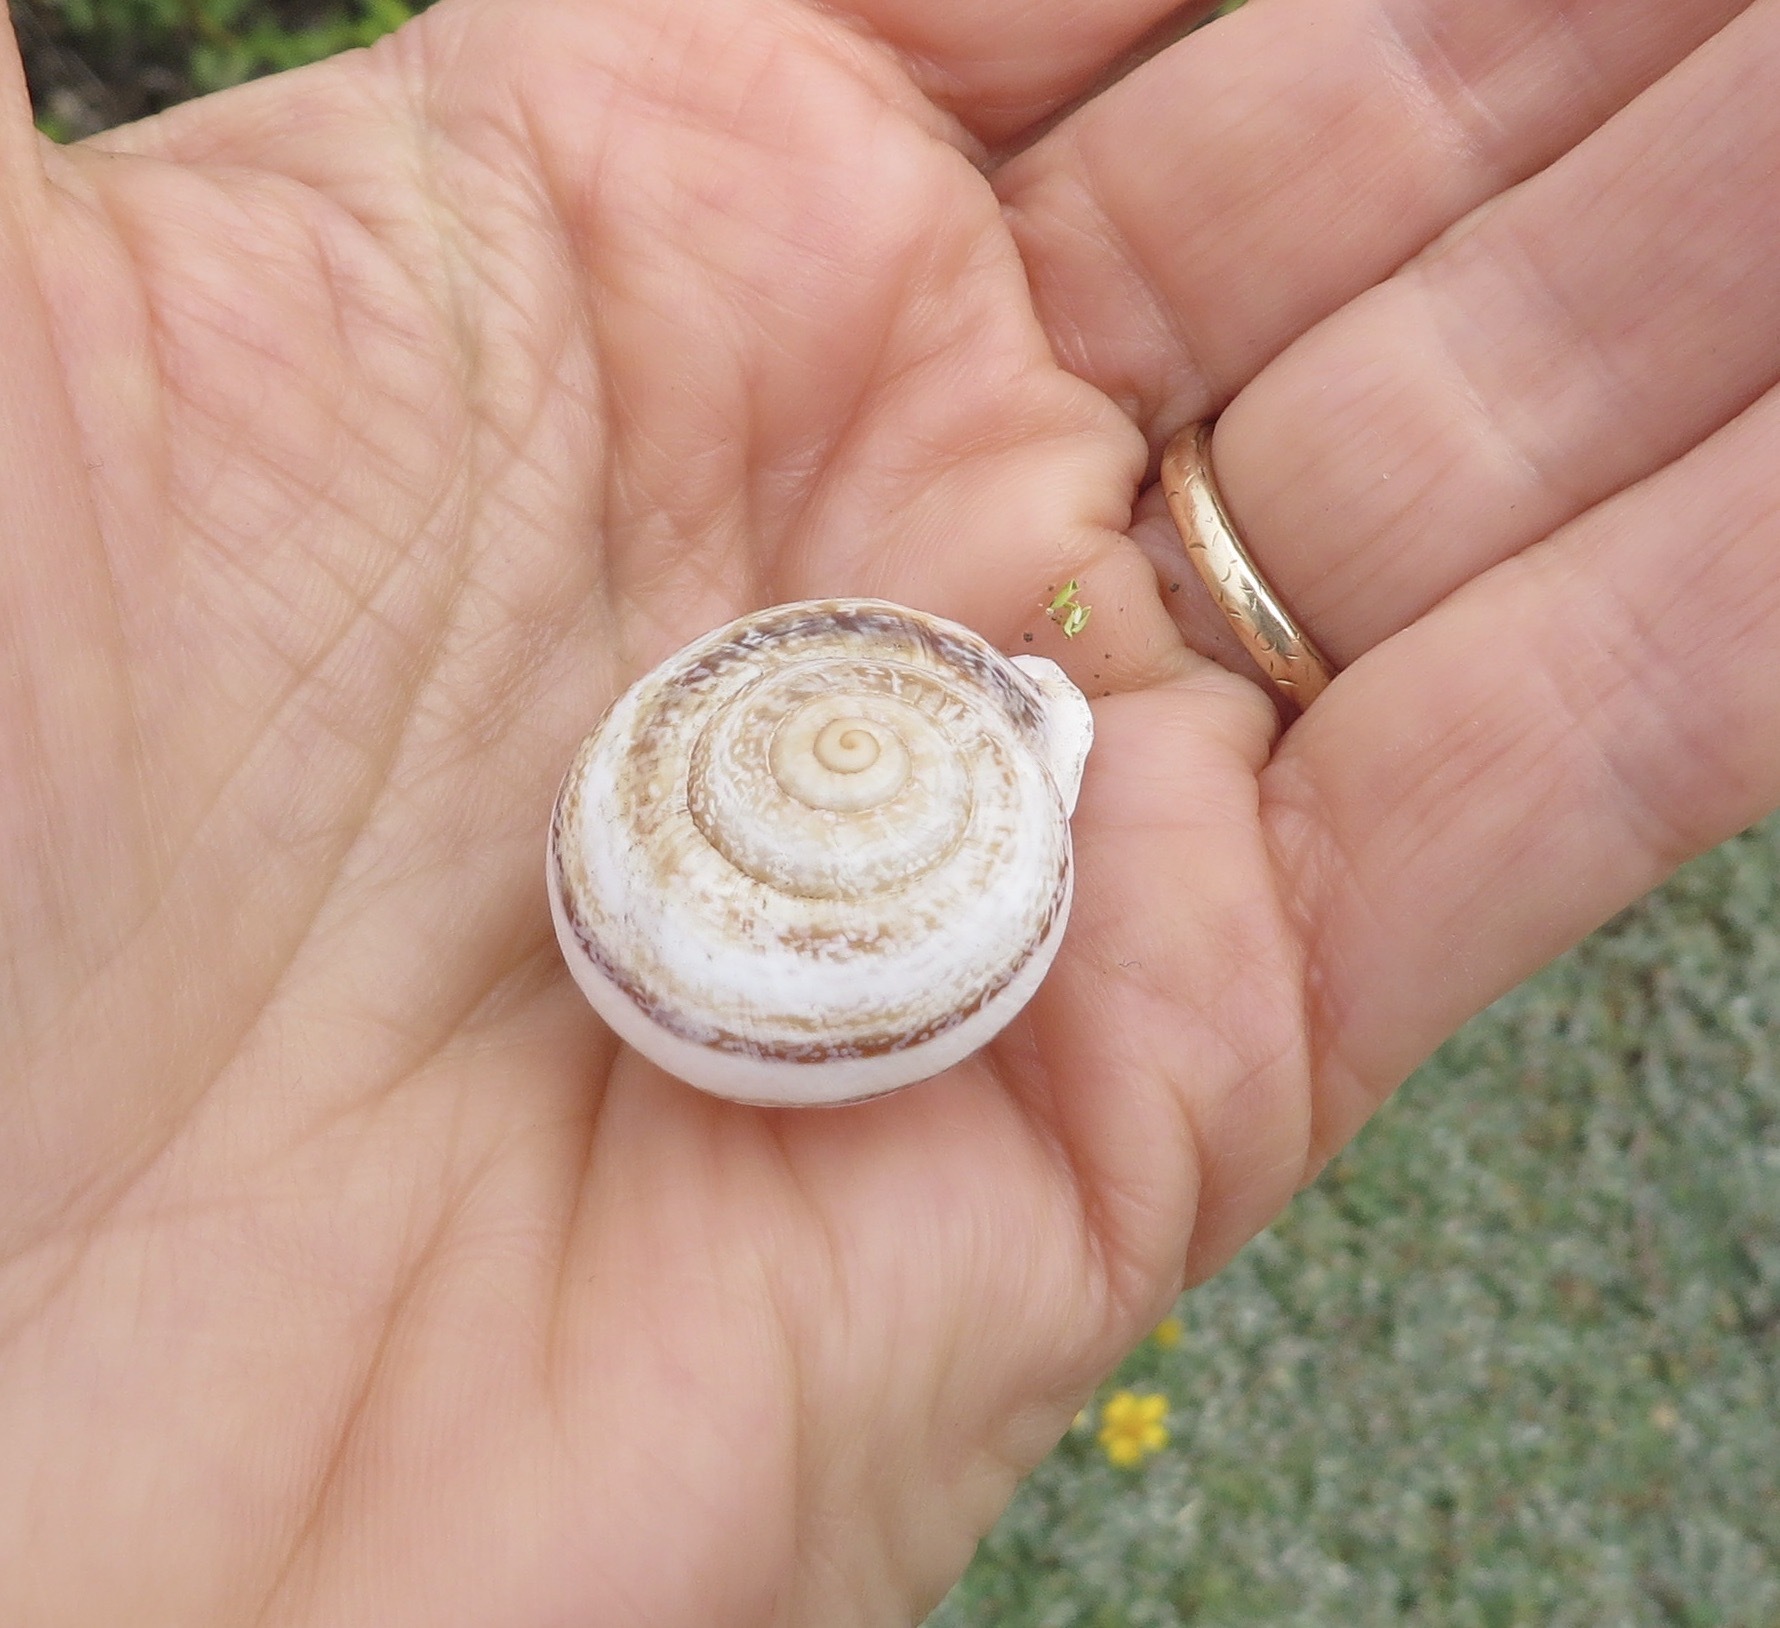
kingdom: Animalia
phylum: Mollusca
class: Gastropoda
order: Stylommatophora
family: Helicidae
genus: Otala
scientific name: Otala lactea
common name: Milk snail
